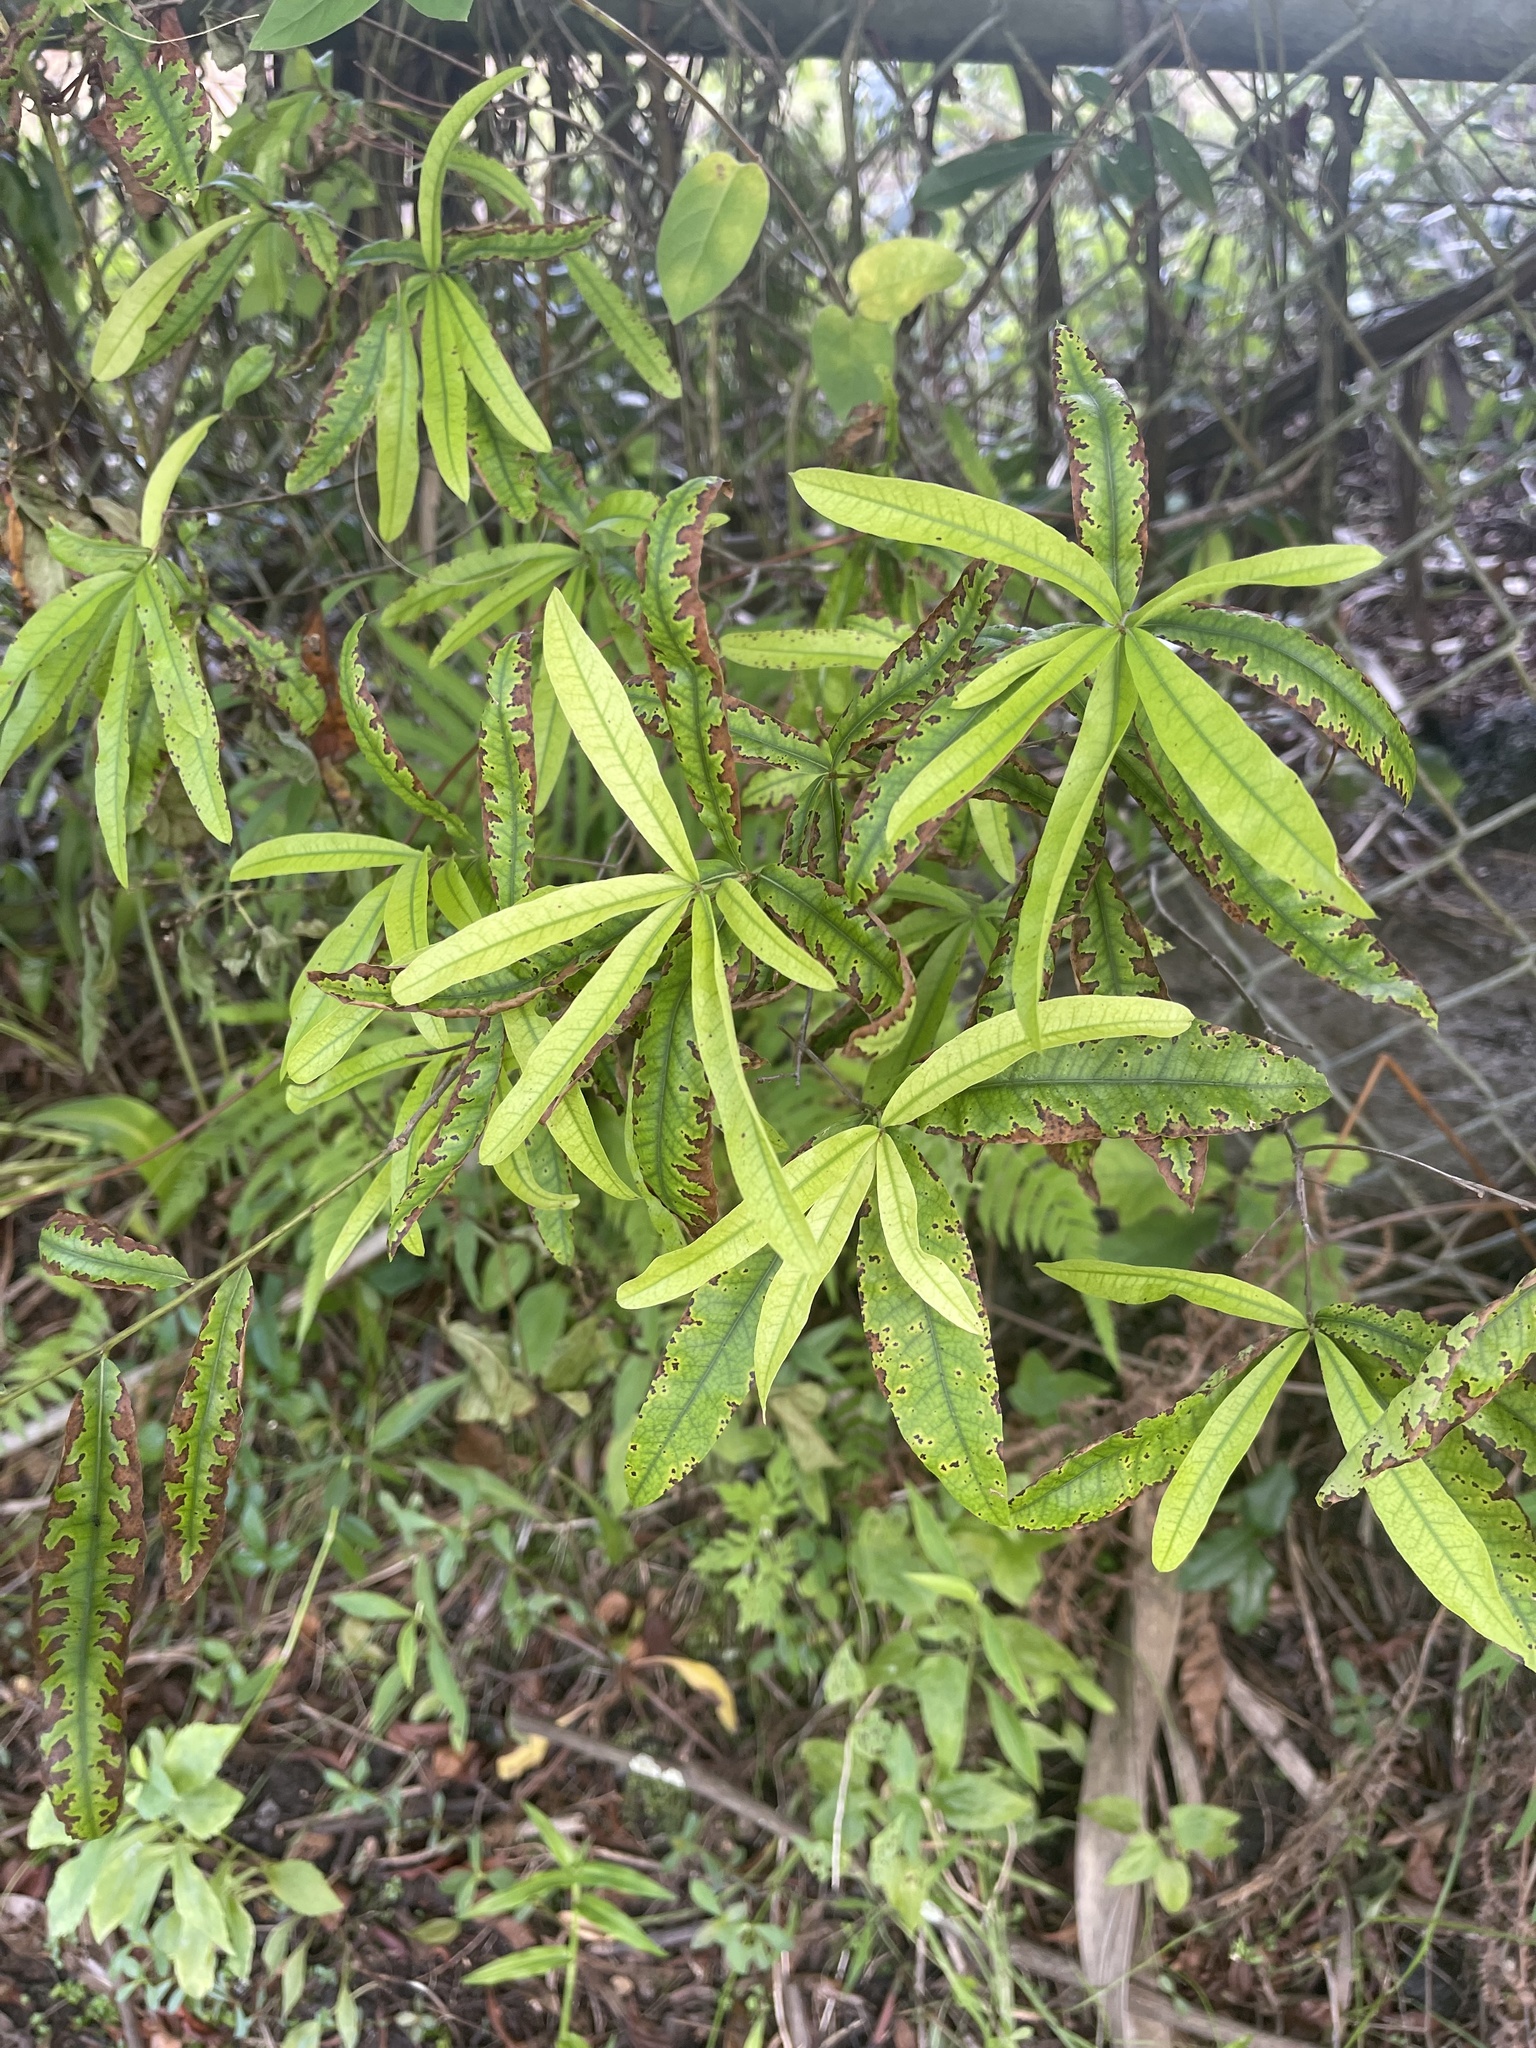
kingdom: Plantae
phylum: Tracheophyta
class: Magnoliopsida
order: Fagales
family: Fagaceae
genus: Quercus
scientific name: Quercus phellos
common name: Willow oak
